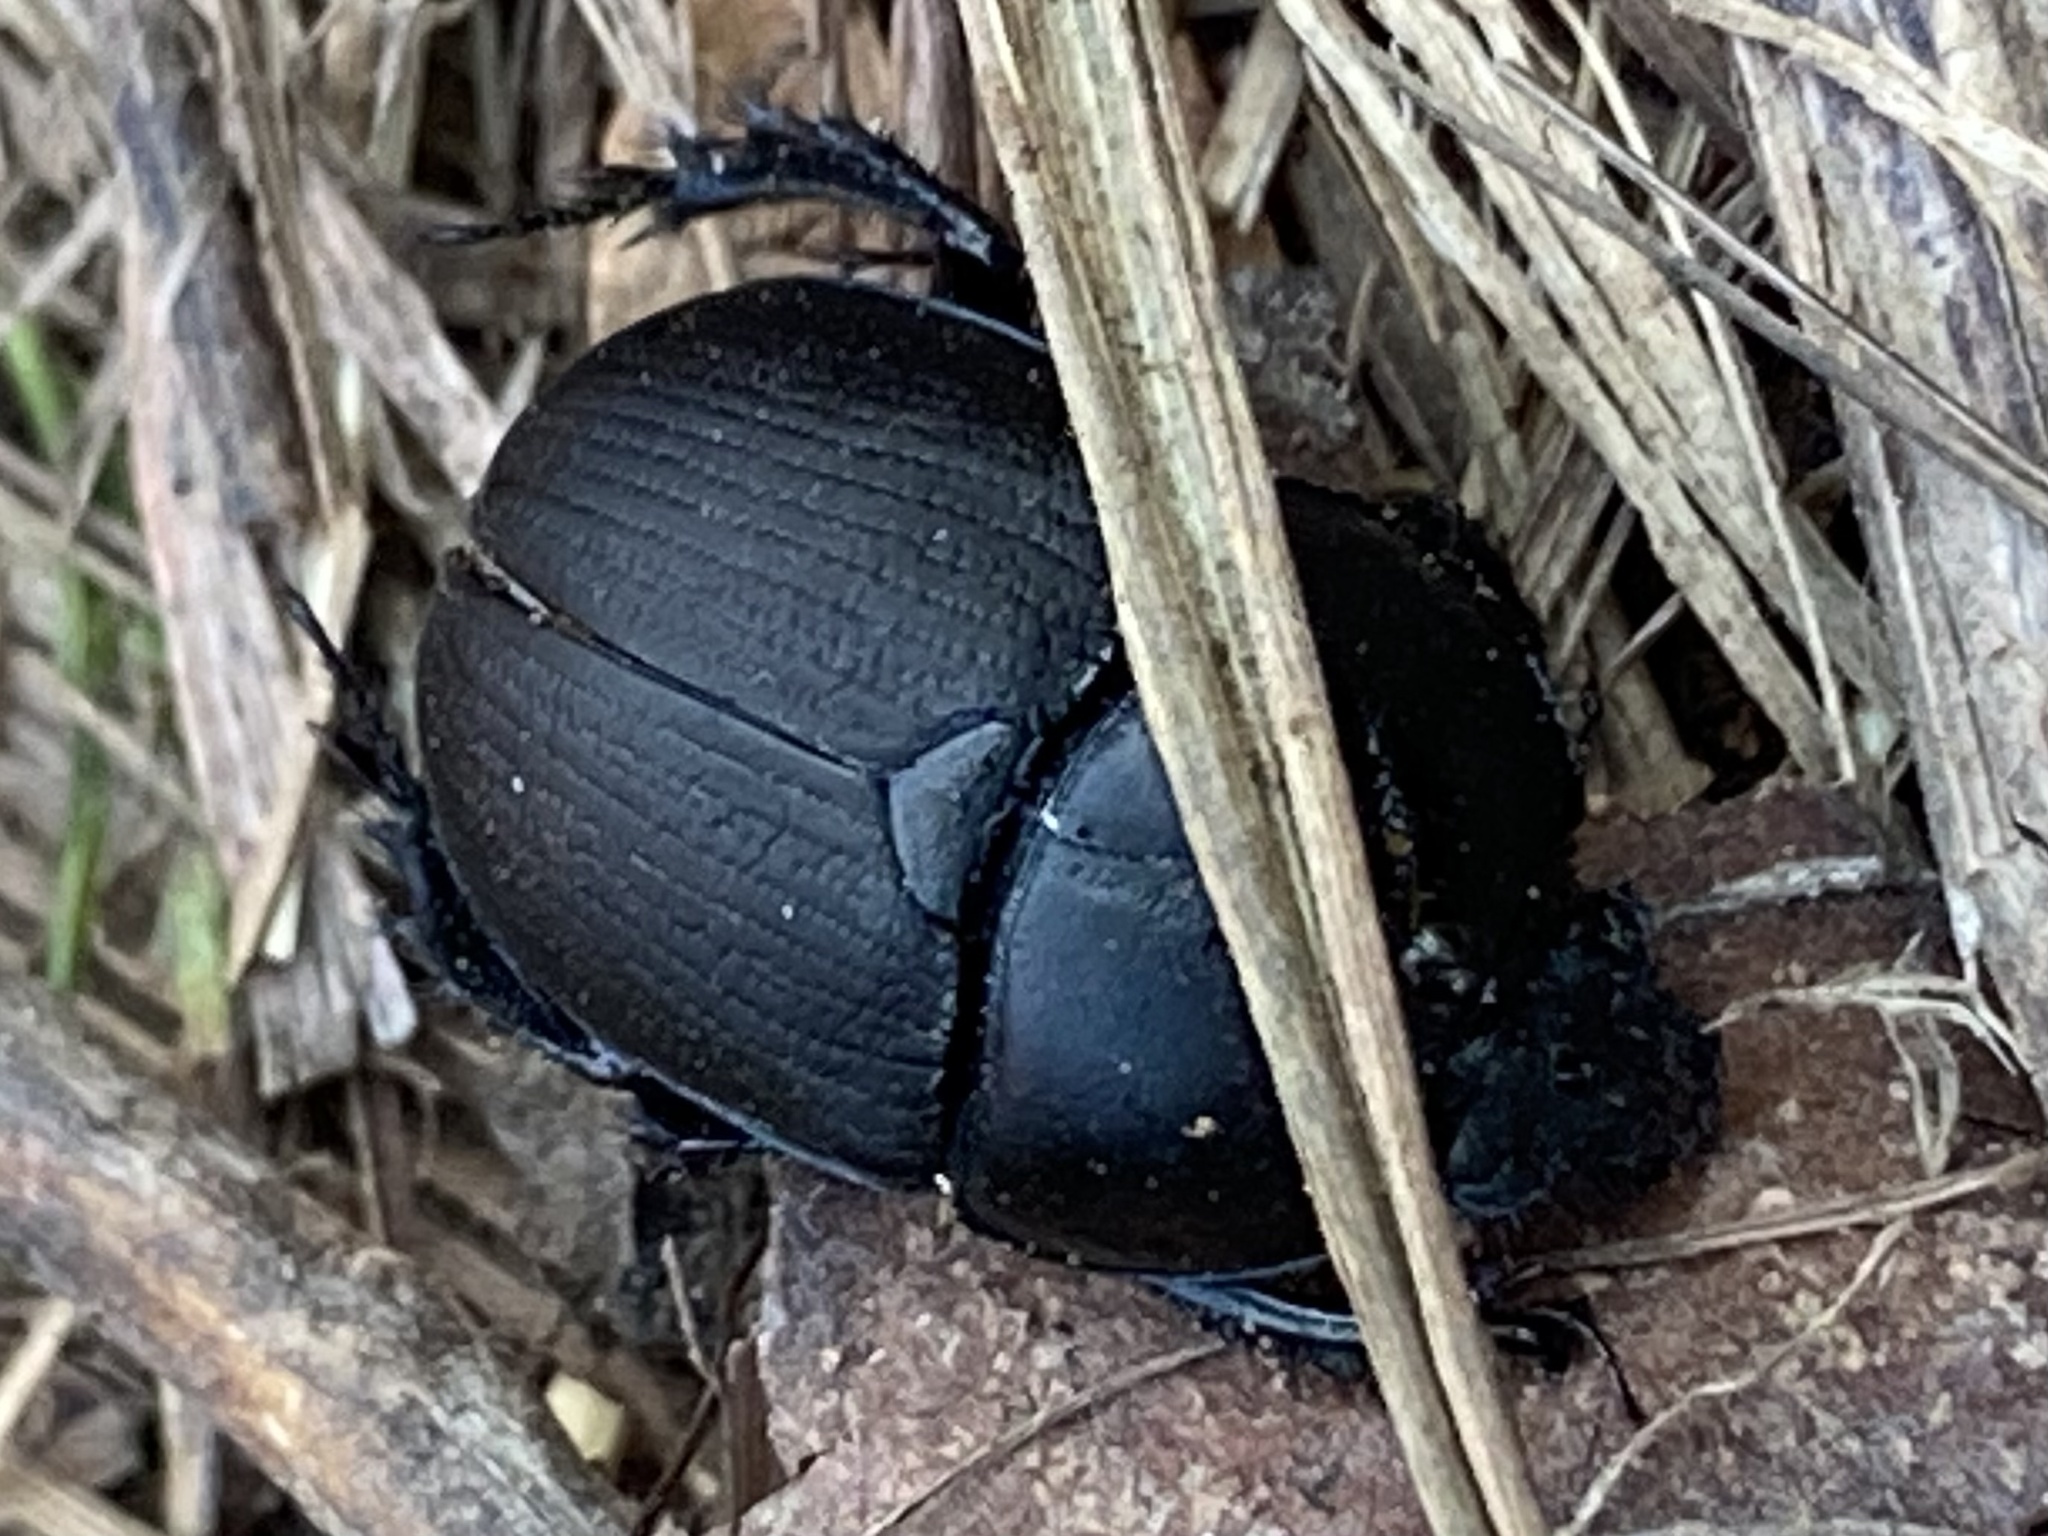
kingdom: Animalia
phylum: Arthropoda
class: Insecta
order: Coleoptera
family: Geotrupidae
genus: Geohowdenius
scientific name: Geohowdenius opacus
